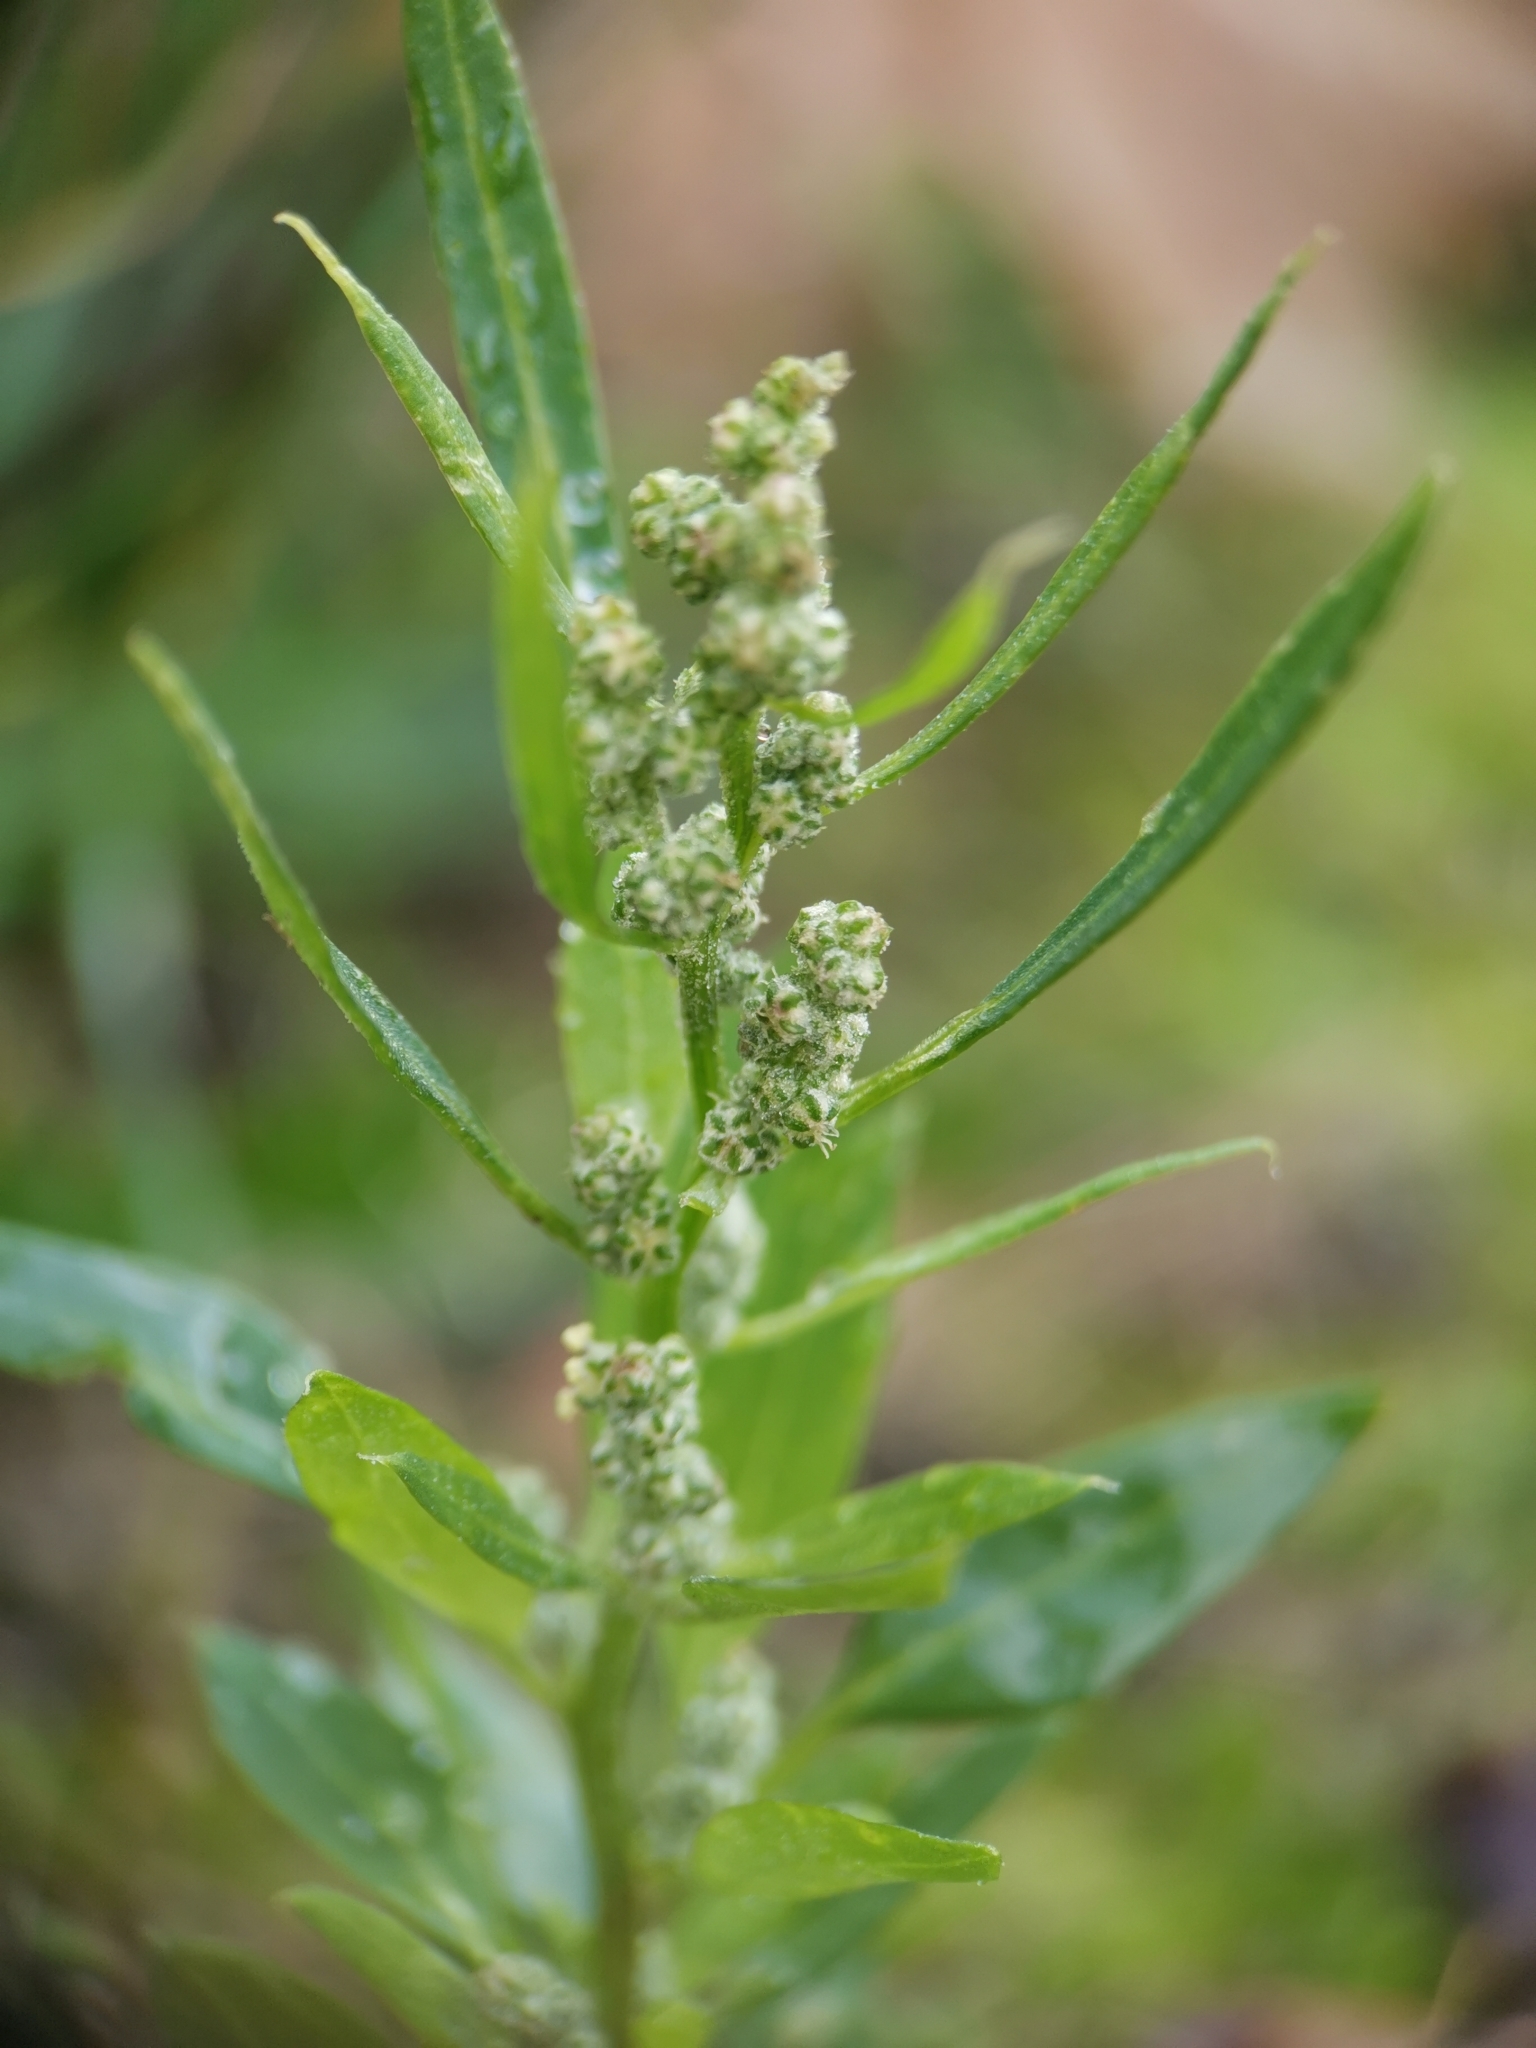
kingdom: Plantae
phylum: Tracheophyta
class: Magnoliopsida
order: Caryophyllales
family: Amaranthaceae
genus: Chenopodium
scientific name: Chenopodium album
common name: Fat-hen
